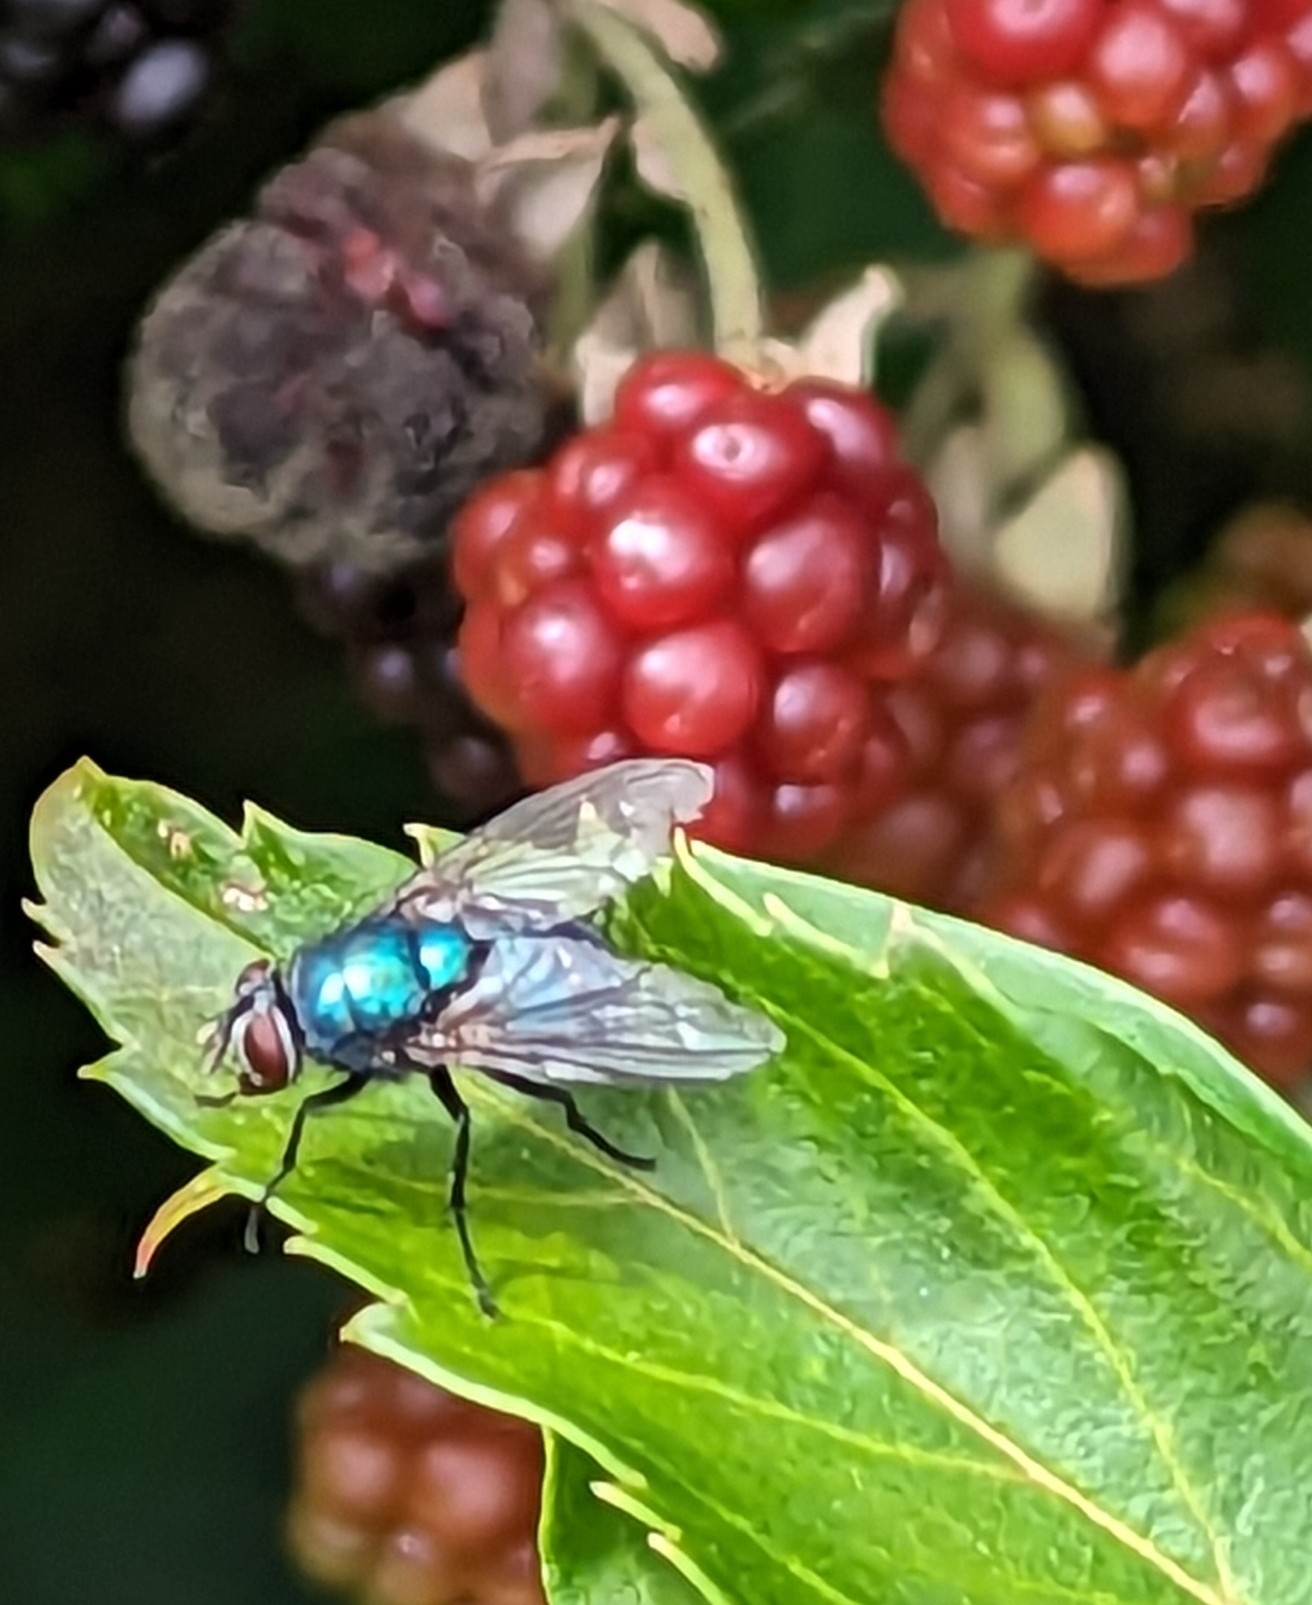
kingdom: Animalia
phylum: Arthropoda
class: Insecta
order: Diptera
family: Calliphoridae
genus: Lucilia
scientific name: Lucilia
